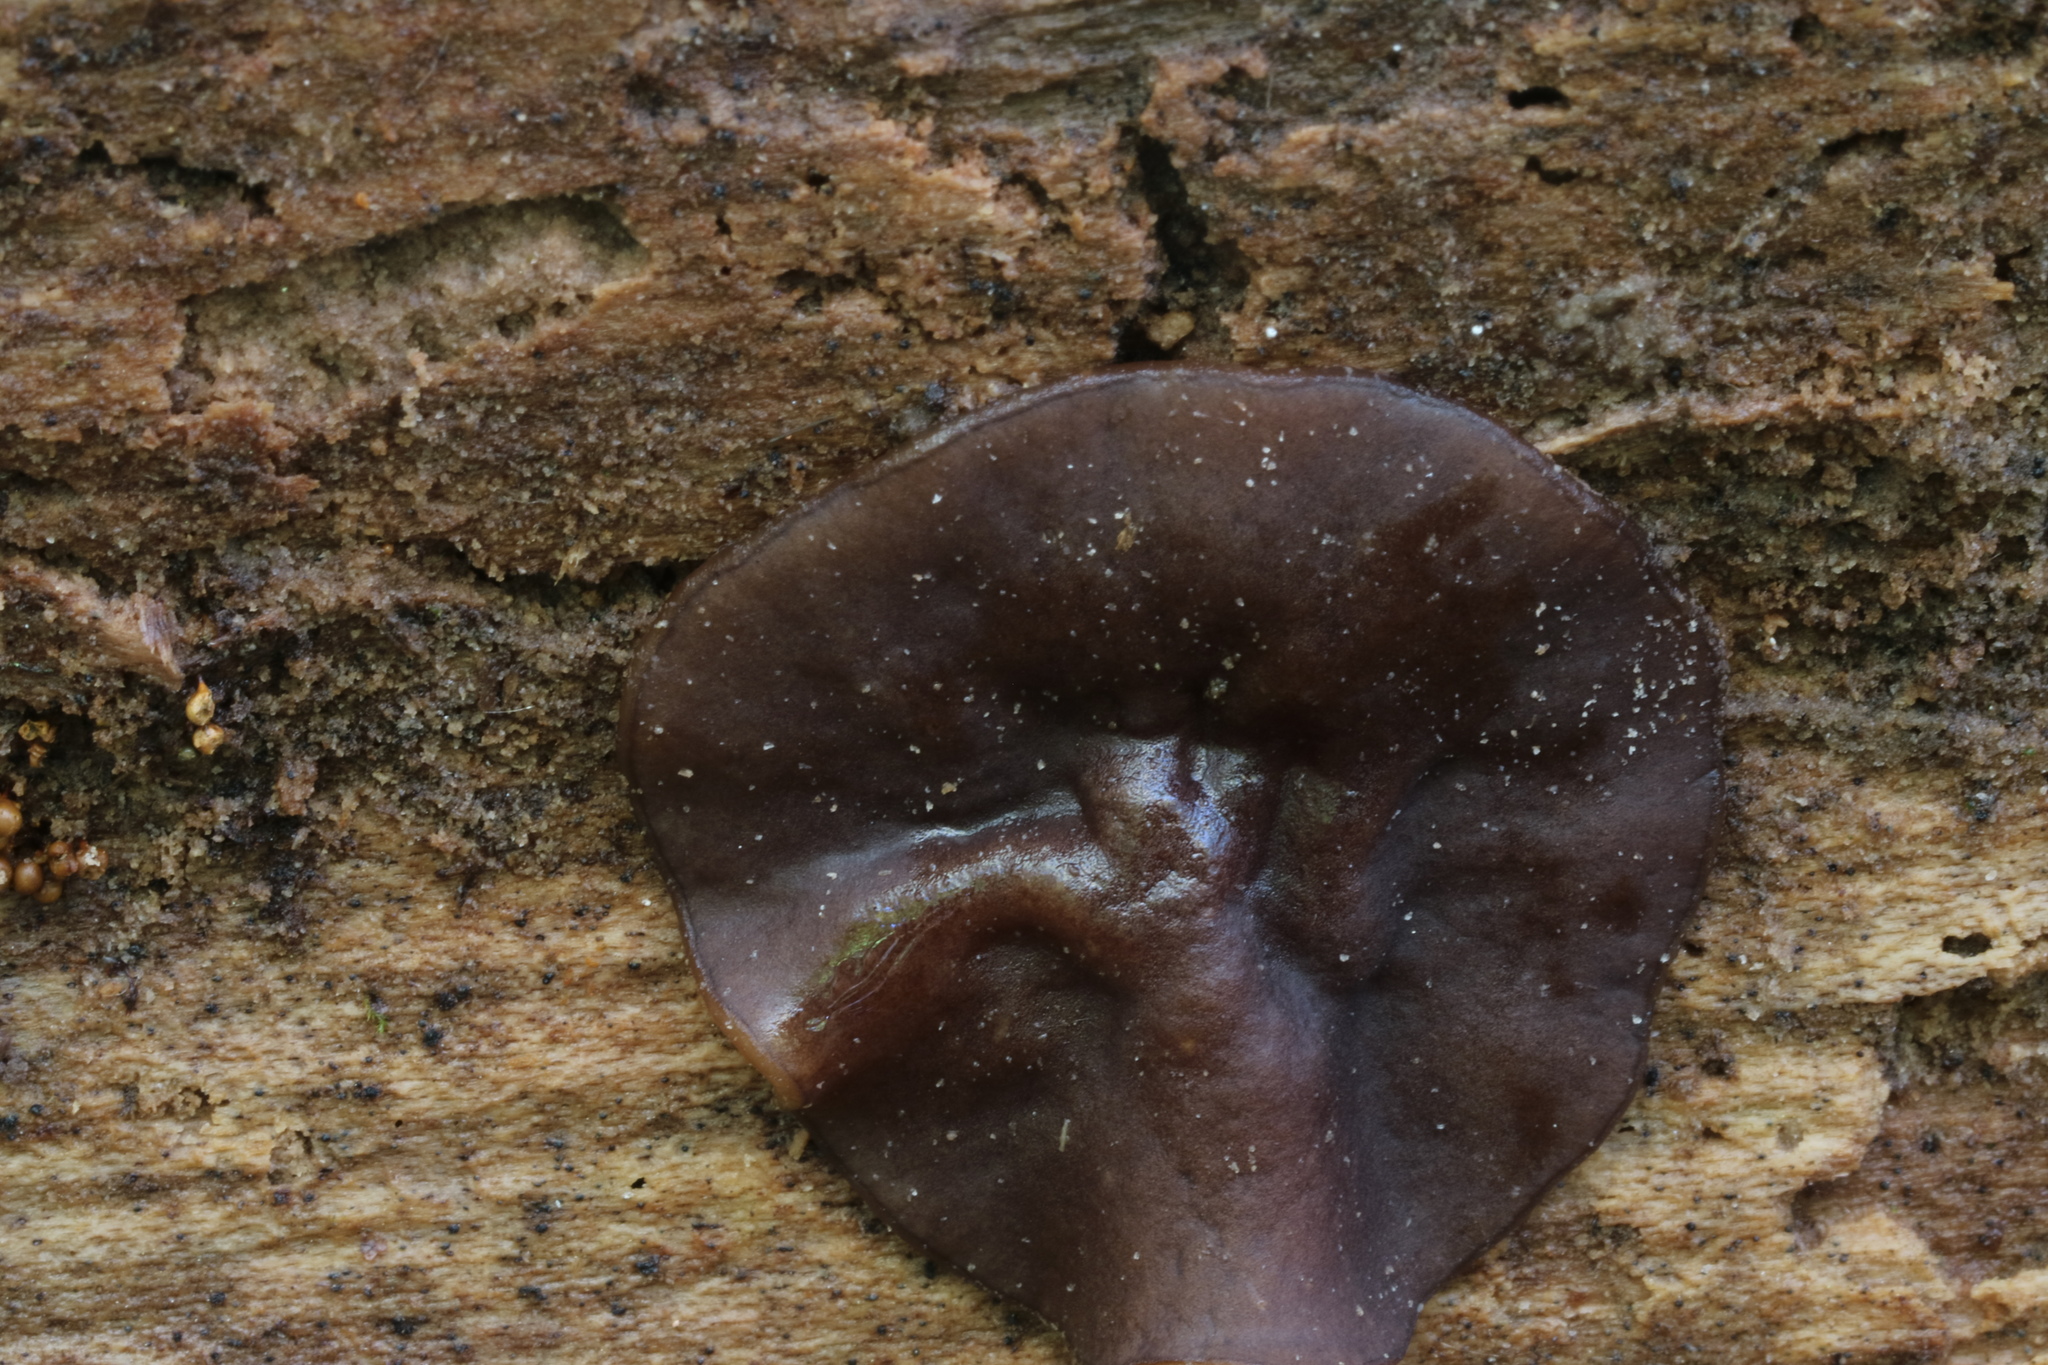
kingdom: Fungi
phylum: Ascomycota
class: Pezizomycetes
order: Pezizales
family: Pezizaceae
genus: Pachyella
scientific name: Pachyella clypeata
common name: Copper penny fungus
